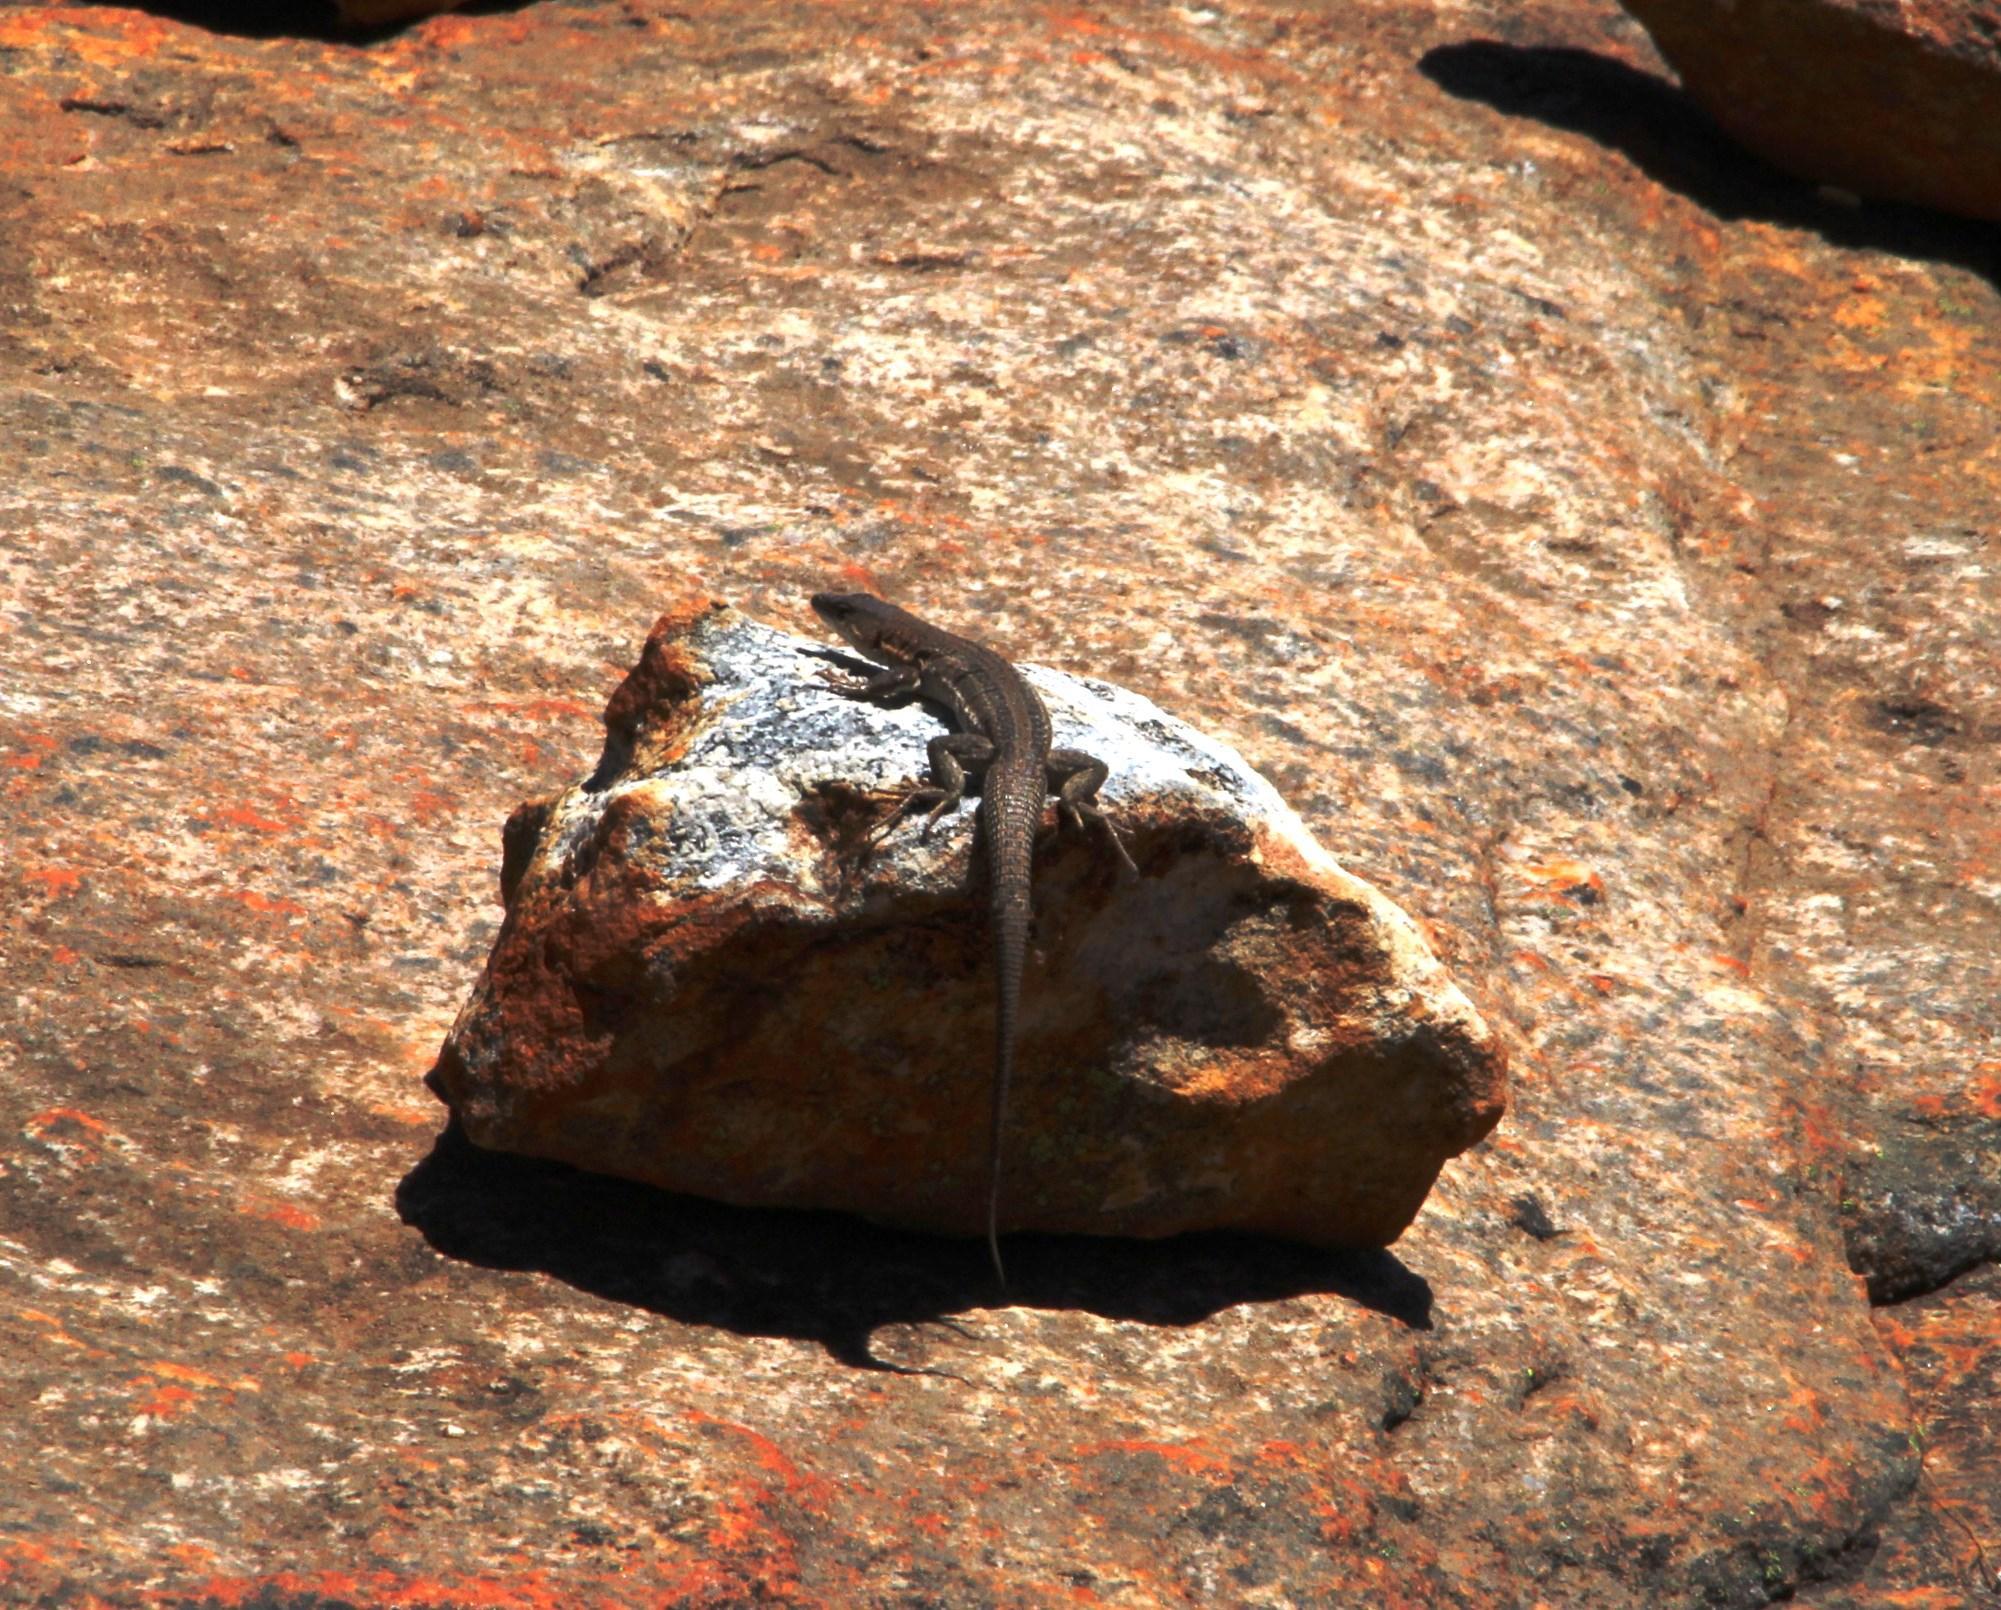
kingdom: Animalia
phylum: Chordata
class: Squamata
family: Lacertidae
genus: Pedioplanis
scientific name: Pedioplanis laticeps
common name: Karoo sand lizard
